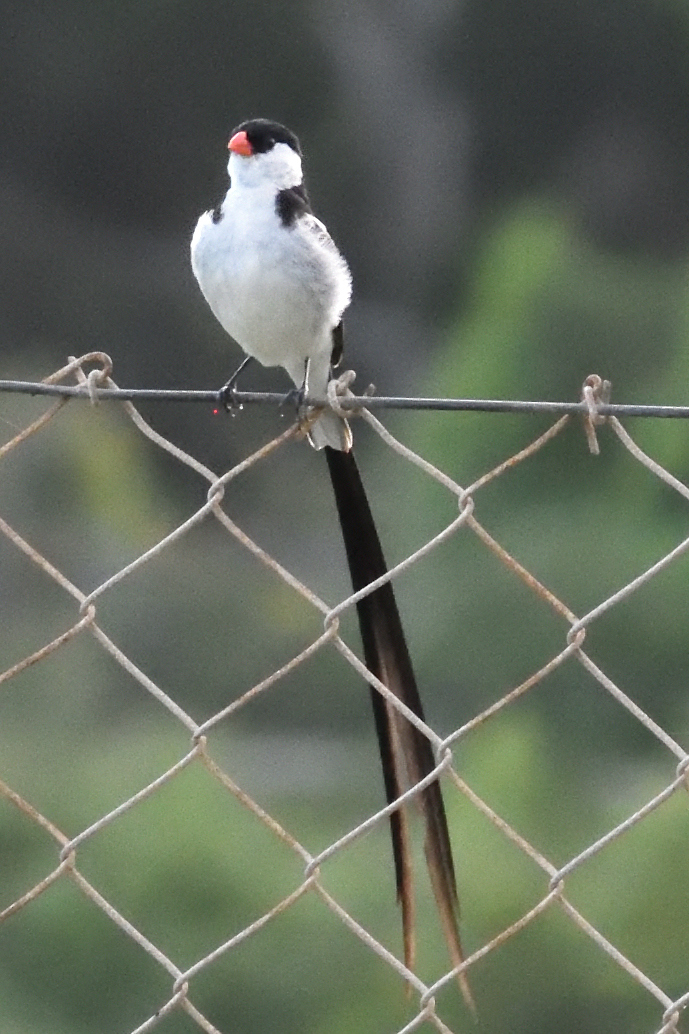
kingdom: Animalia
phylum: Chordata
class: Aves
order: Passeriformes
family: Viduidae
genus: Vidua
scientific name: Vidua macroura
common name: Pin-tailed whydah
